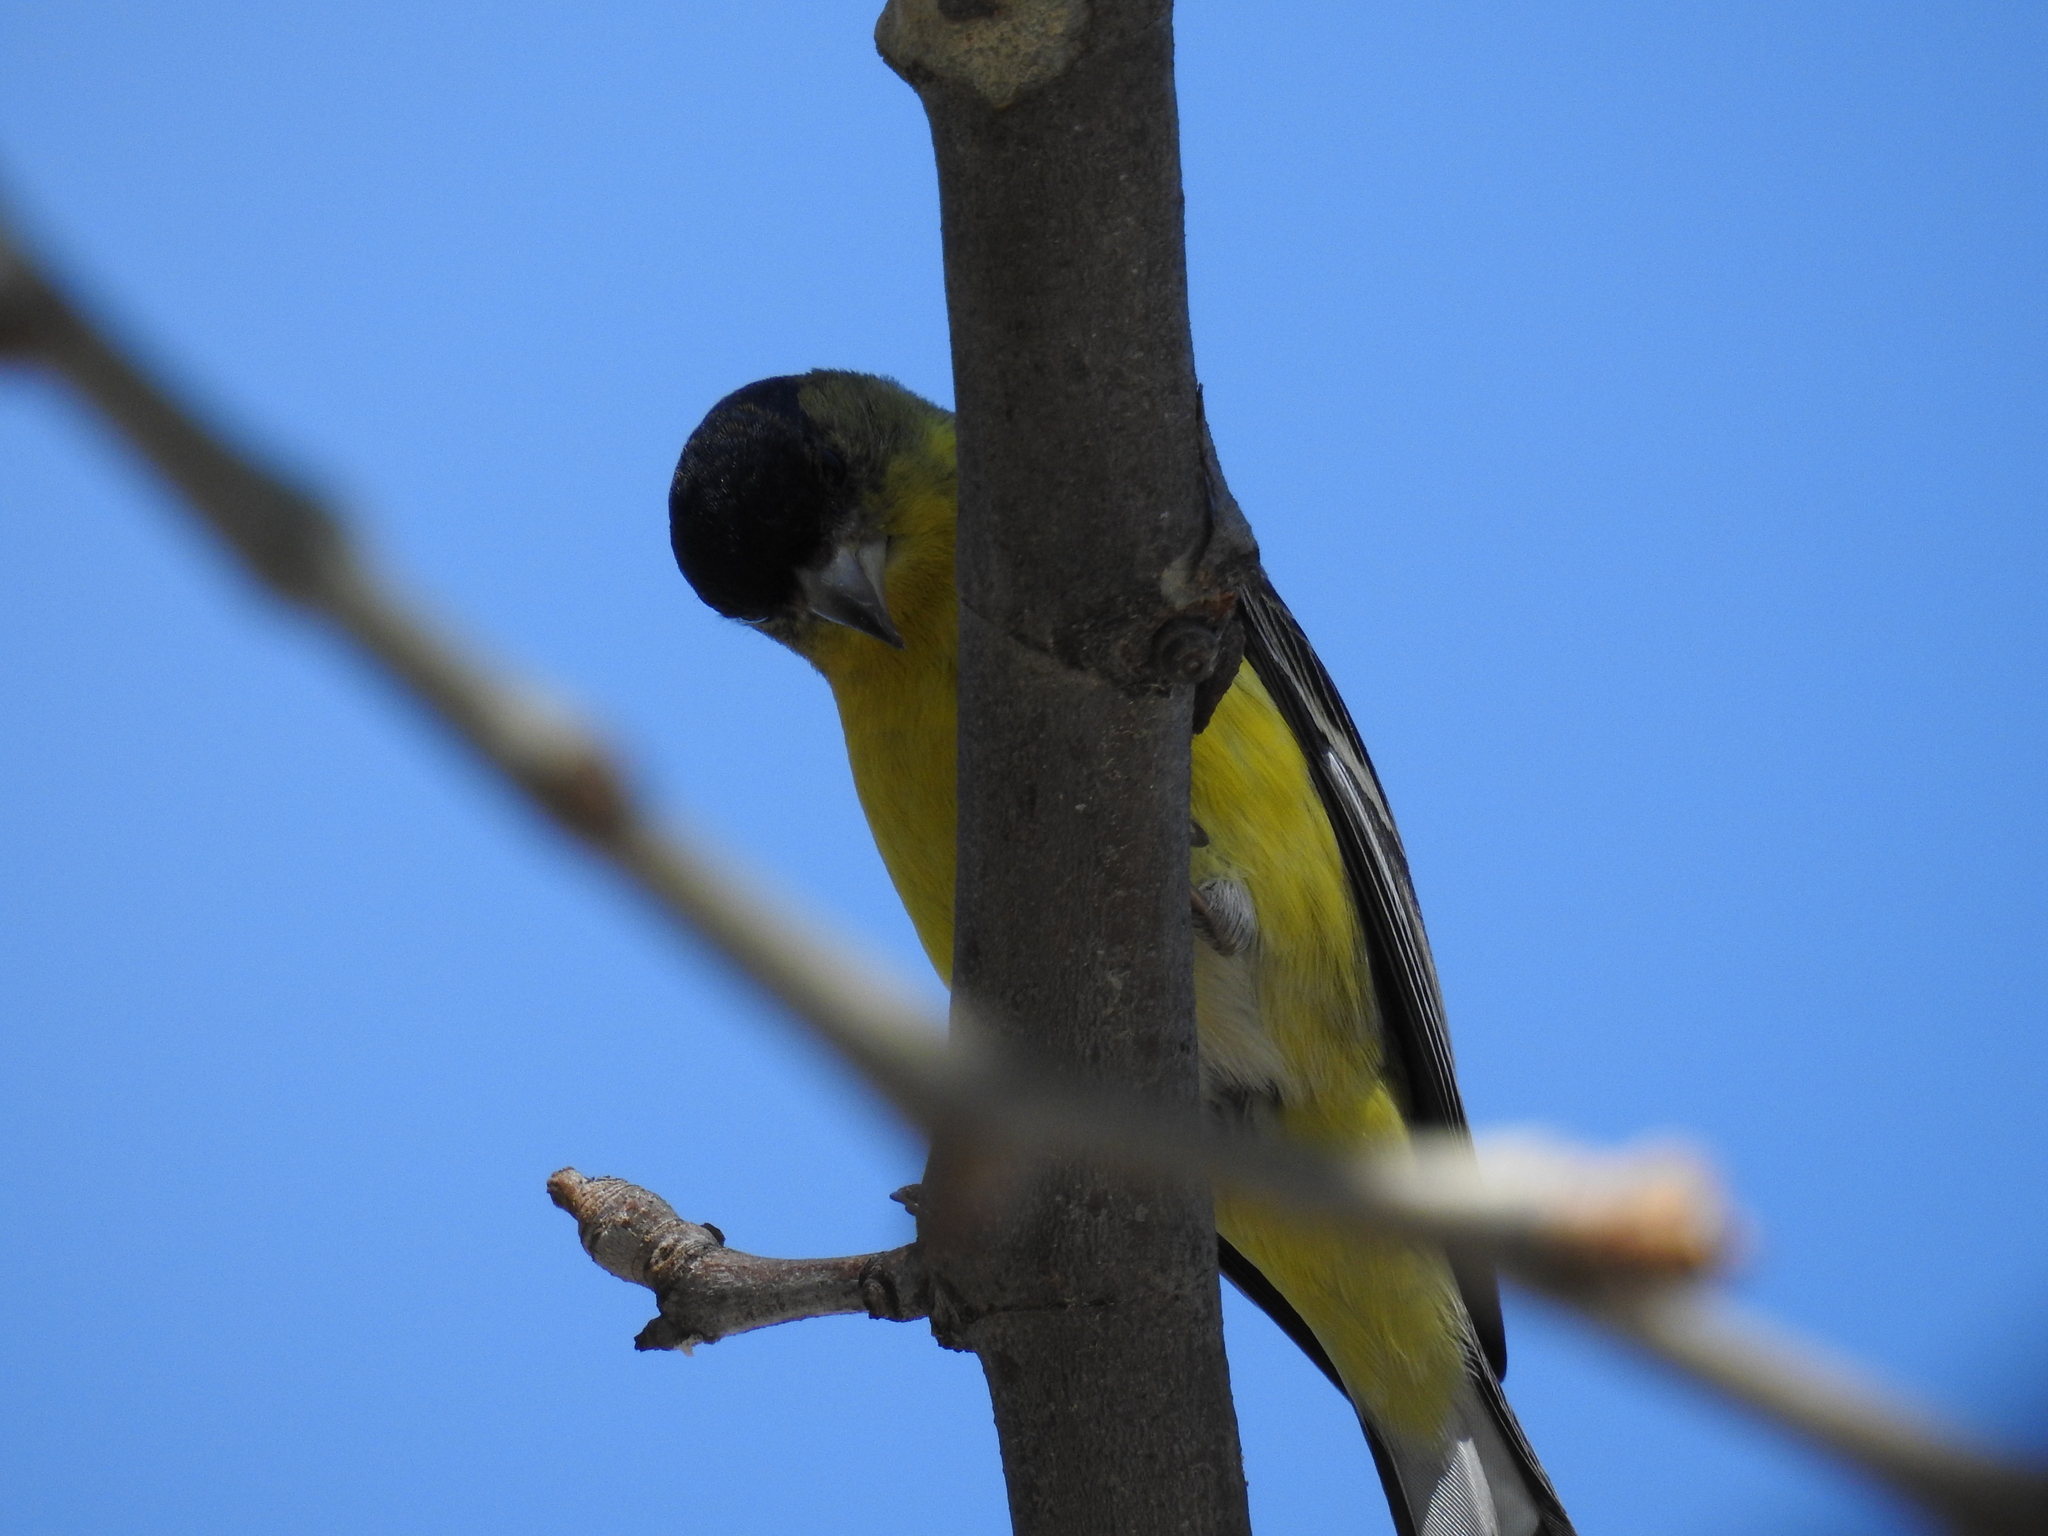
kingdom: Animalia
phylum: Chordata
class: Aves
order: Passeriformes
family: Fringillidae
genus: Spinus
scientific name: Spinus psaltria
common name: Lesser goldfinch
